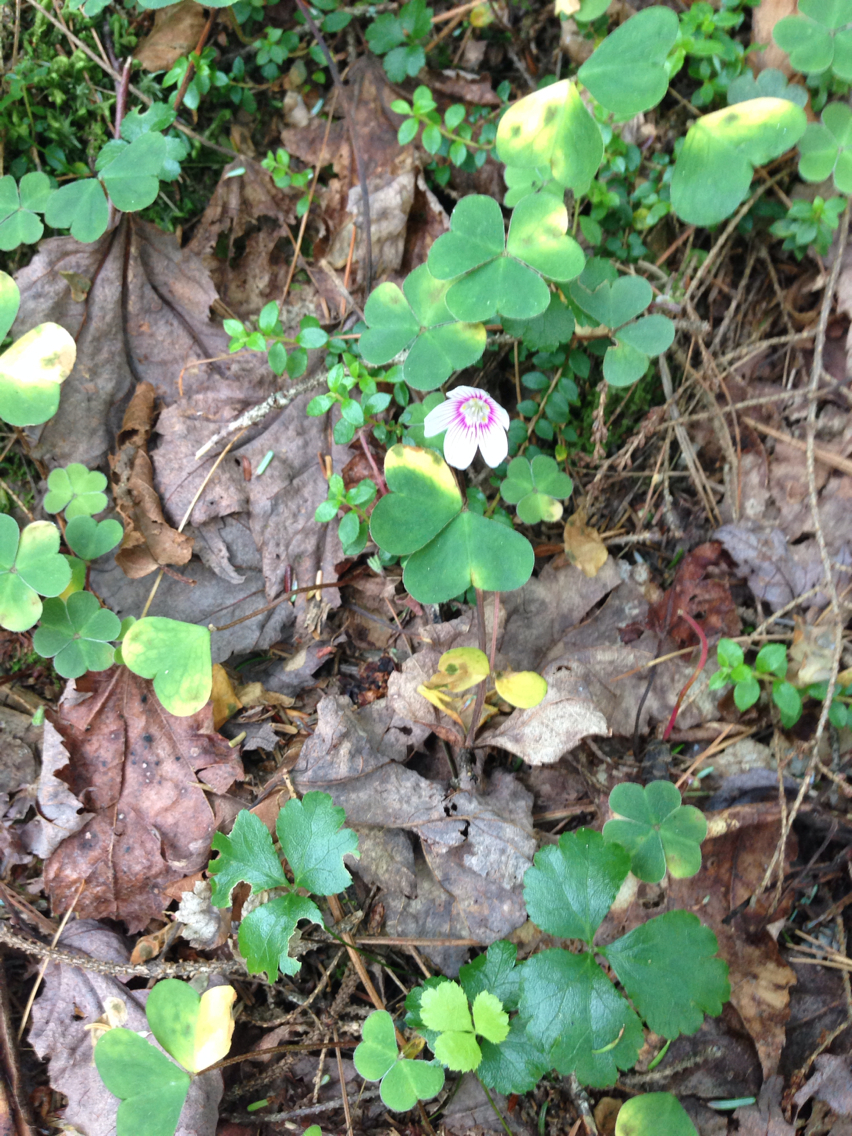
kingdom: Plantae
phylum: Tracheophyta
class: Magnoliopsida
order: Oxalidales
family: Oxalidaceae
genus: Oxalis
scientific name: Oxalis montana
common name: American wood-sorrel
